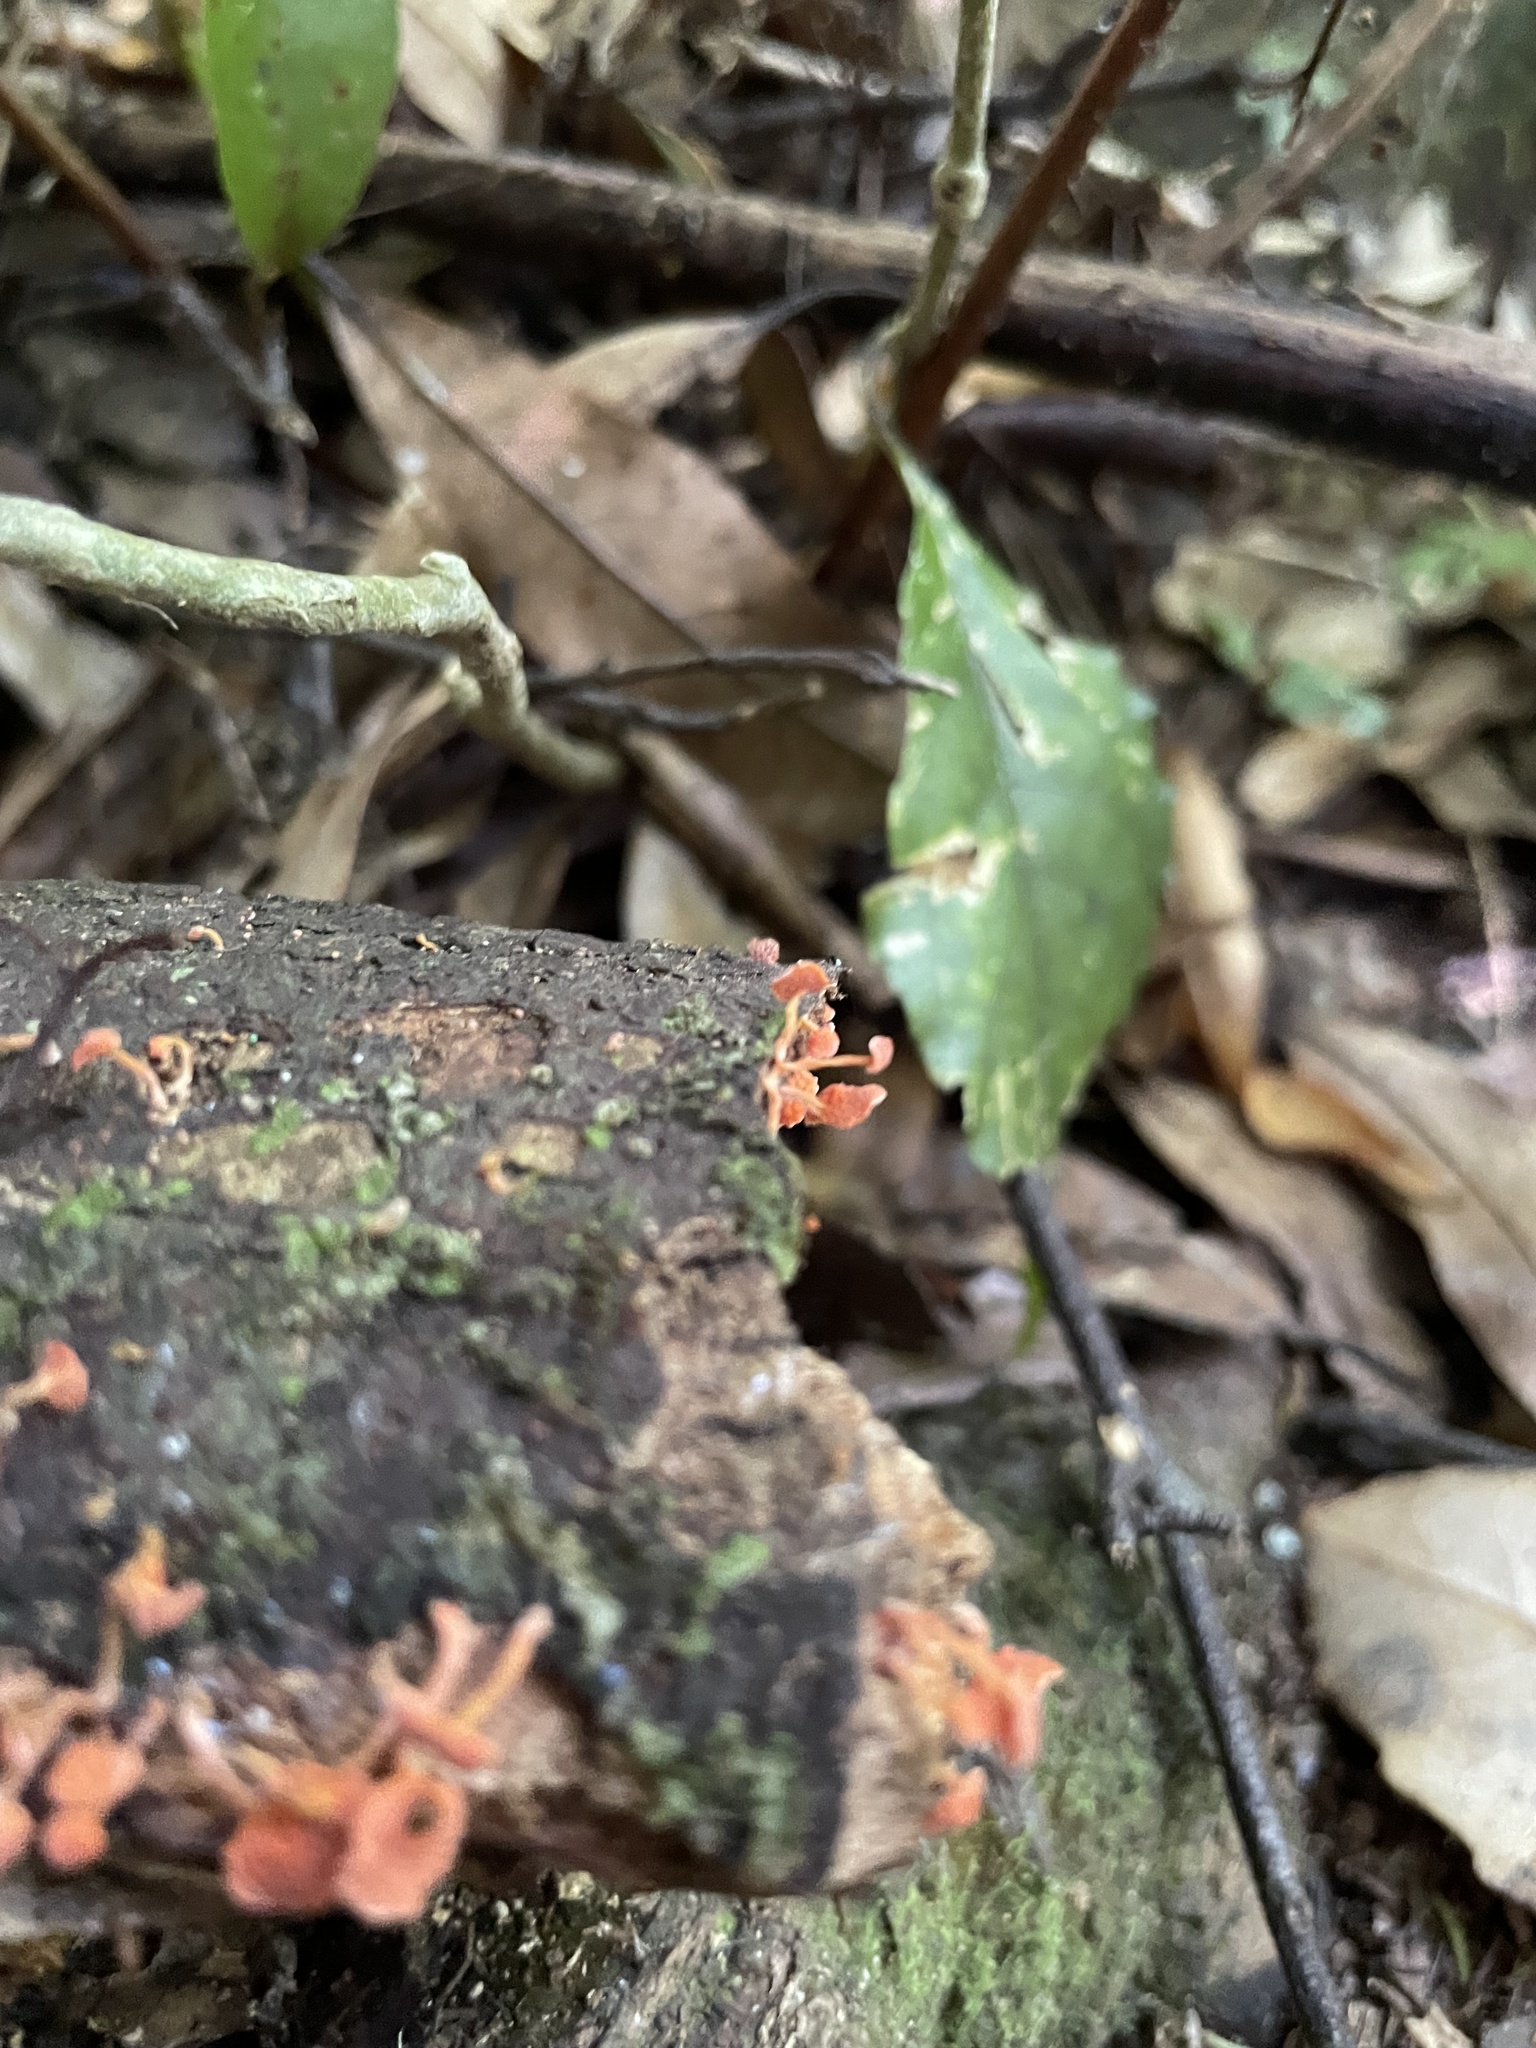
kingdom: Fungi
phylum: Basidiomycota
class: Agaricomycetes
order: Agaricales
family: Mycenaceae
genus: Favolaschia
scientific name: Favolaschia claudopus
